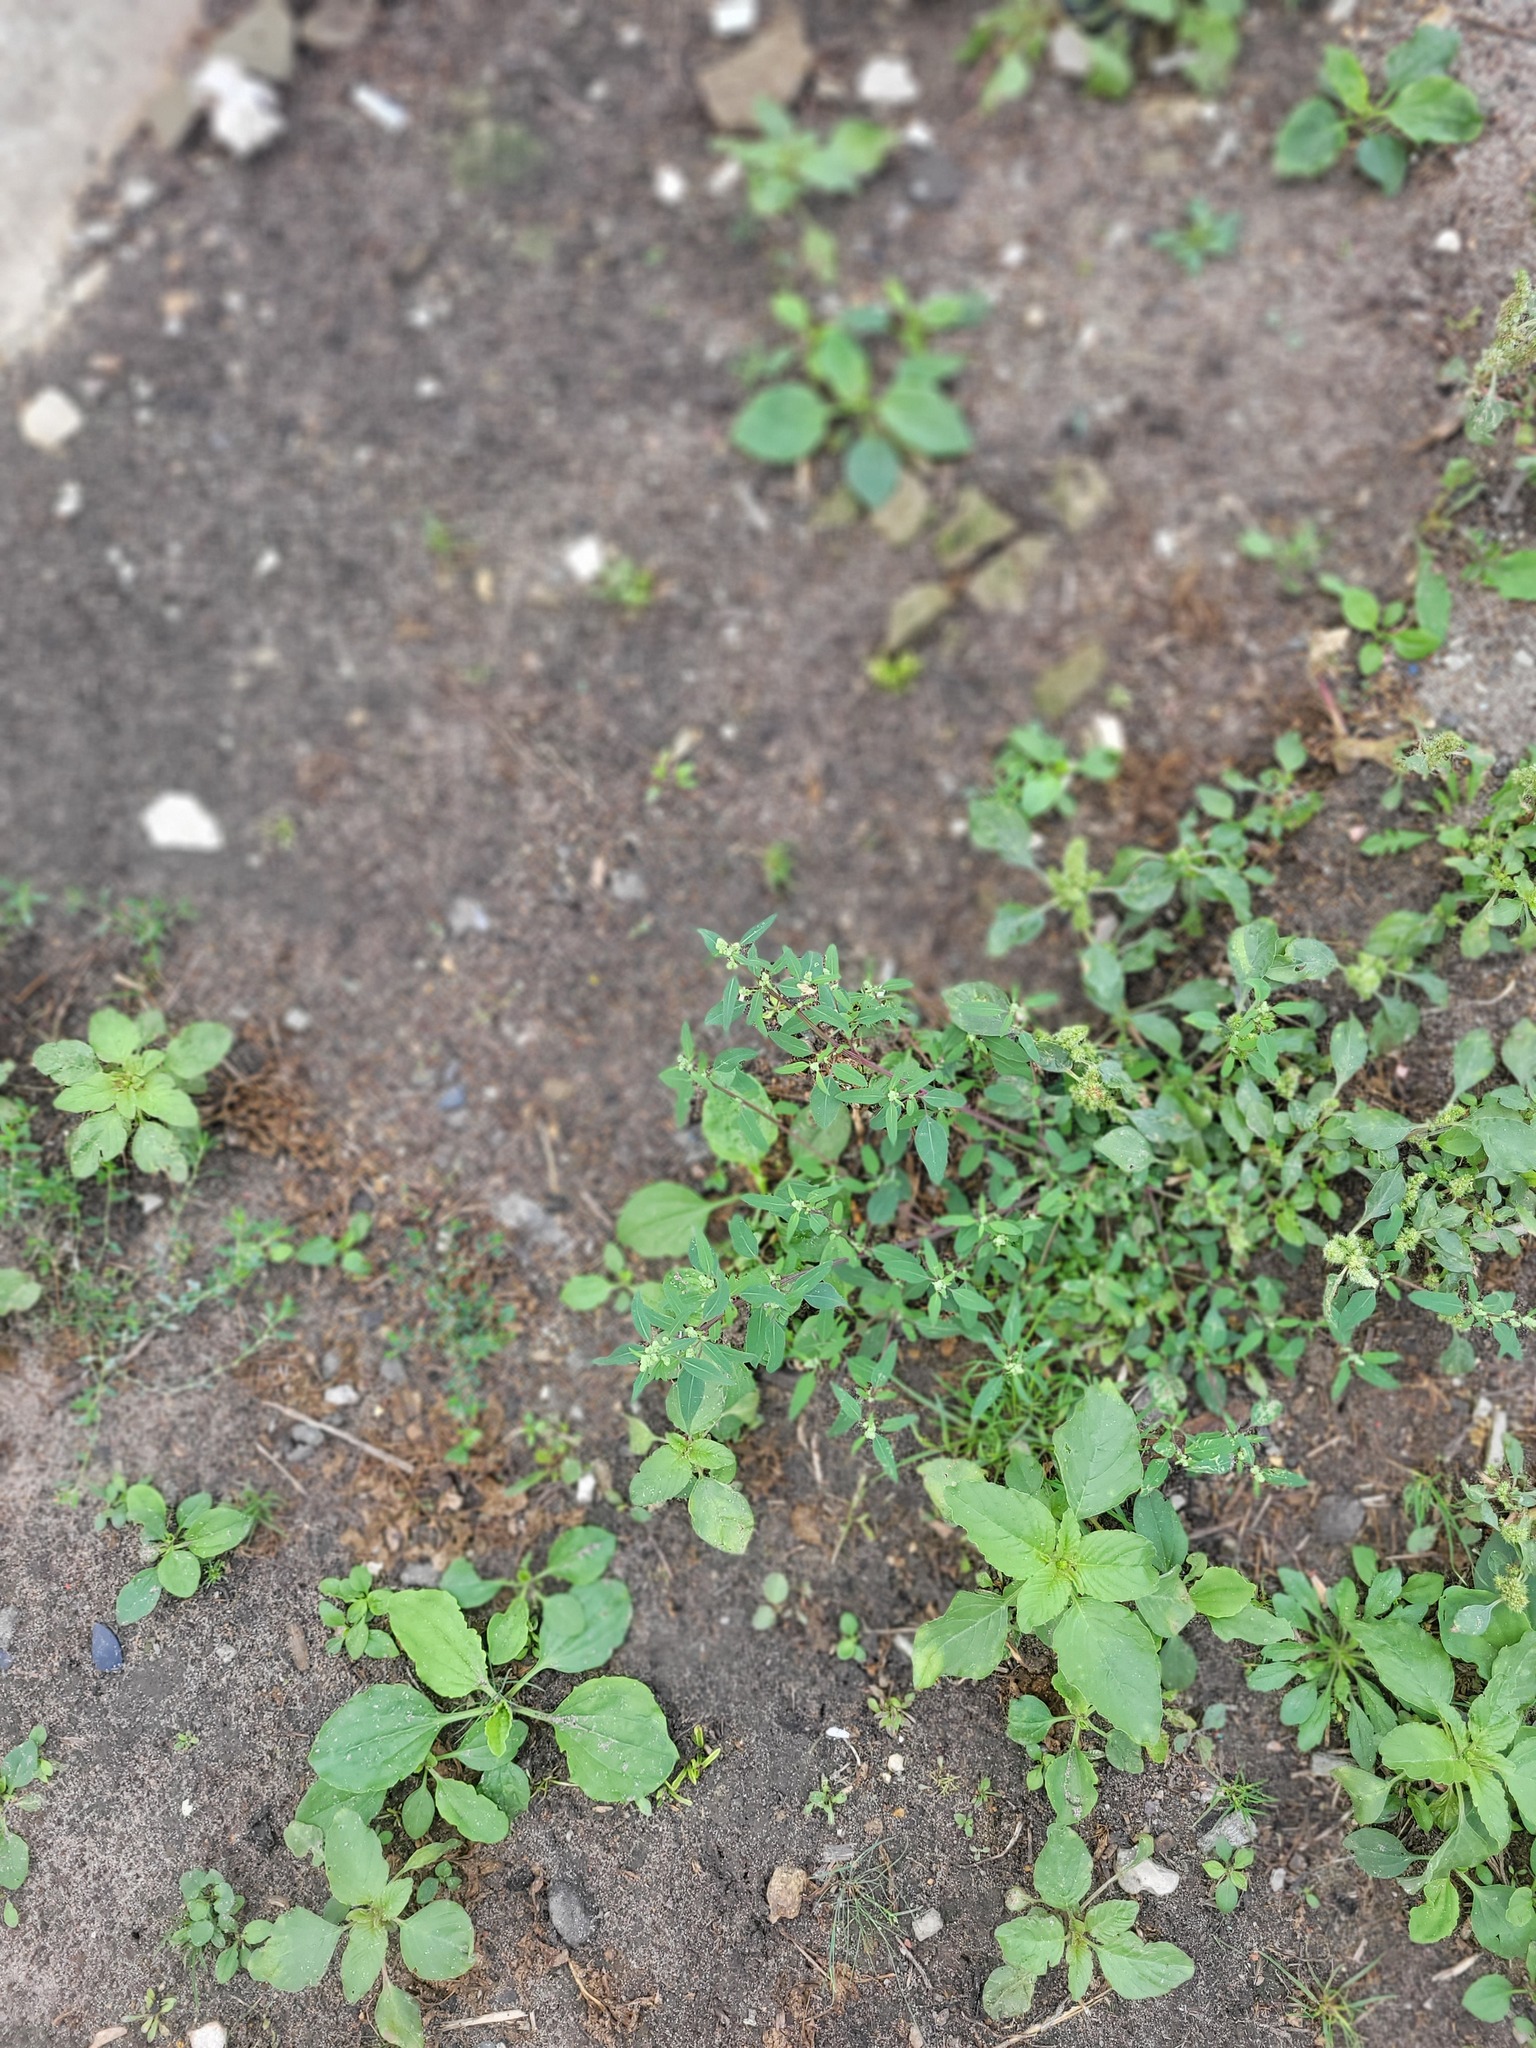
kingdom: Plantae
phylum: Tracheophyta
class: Magnoliopsida
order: Caryophyllales
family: Amaranthaceae
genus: Chenopodium
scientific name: Chenopodium betaceum
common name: Striped goosefoot
